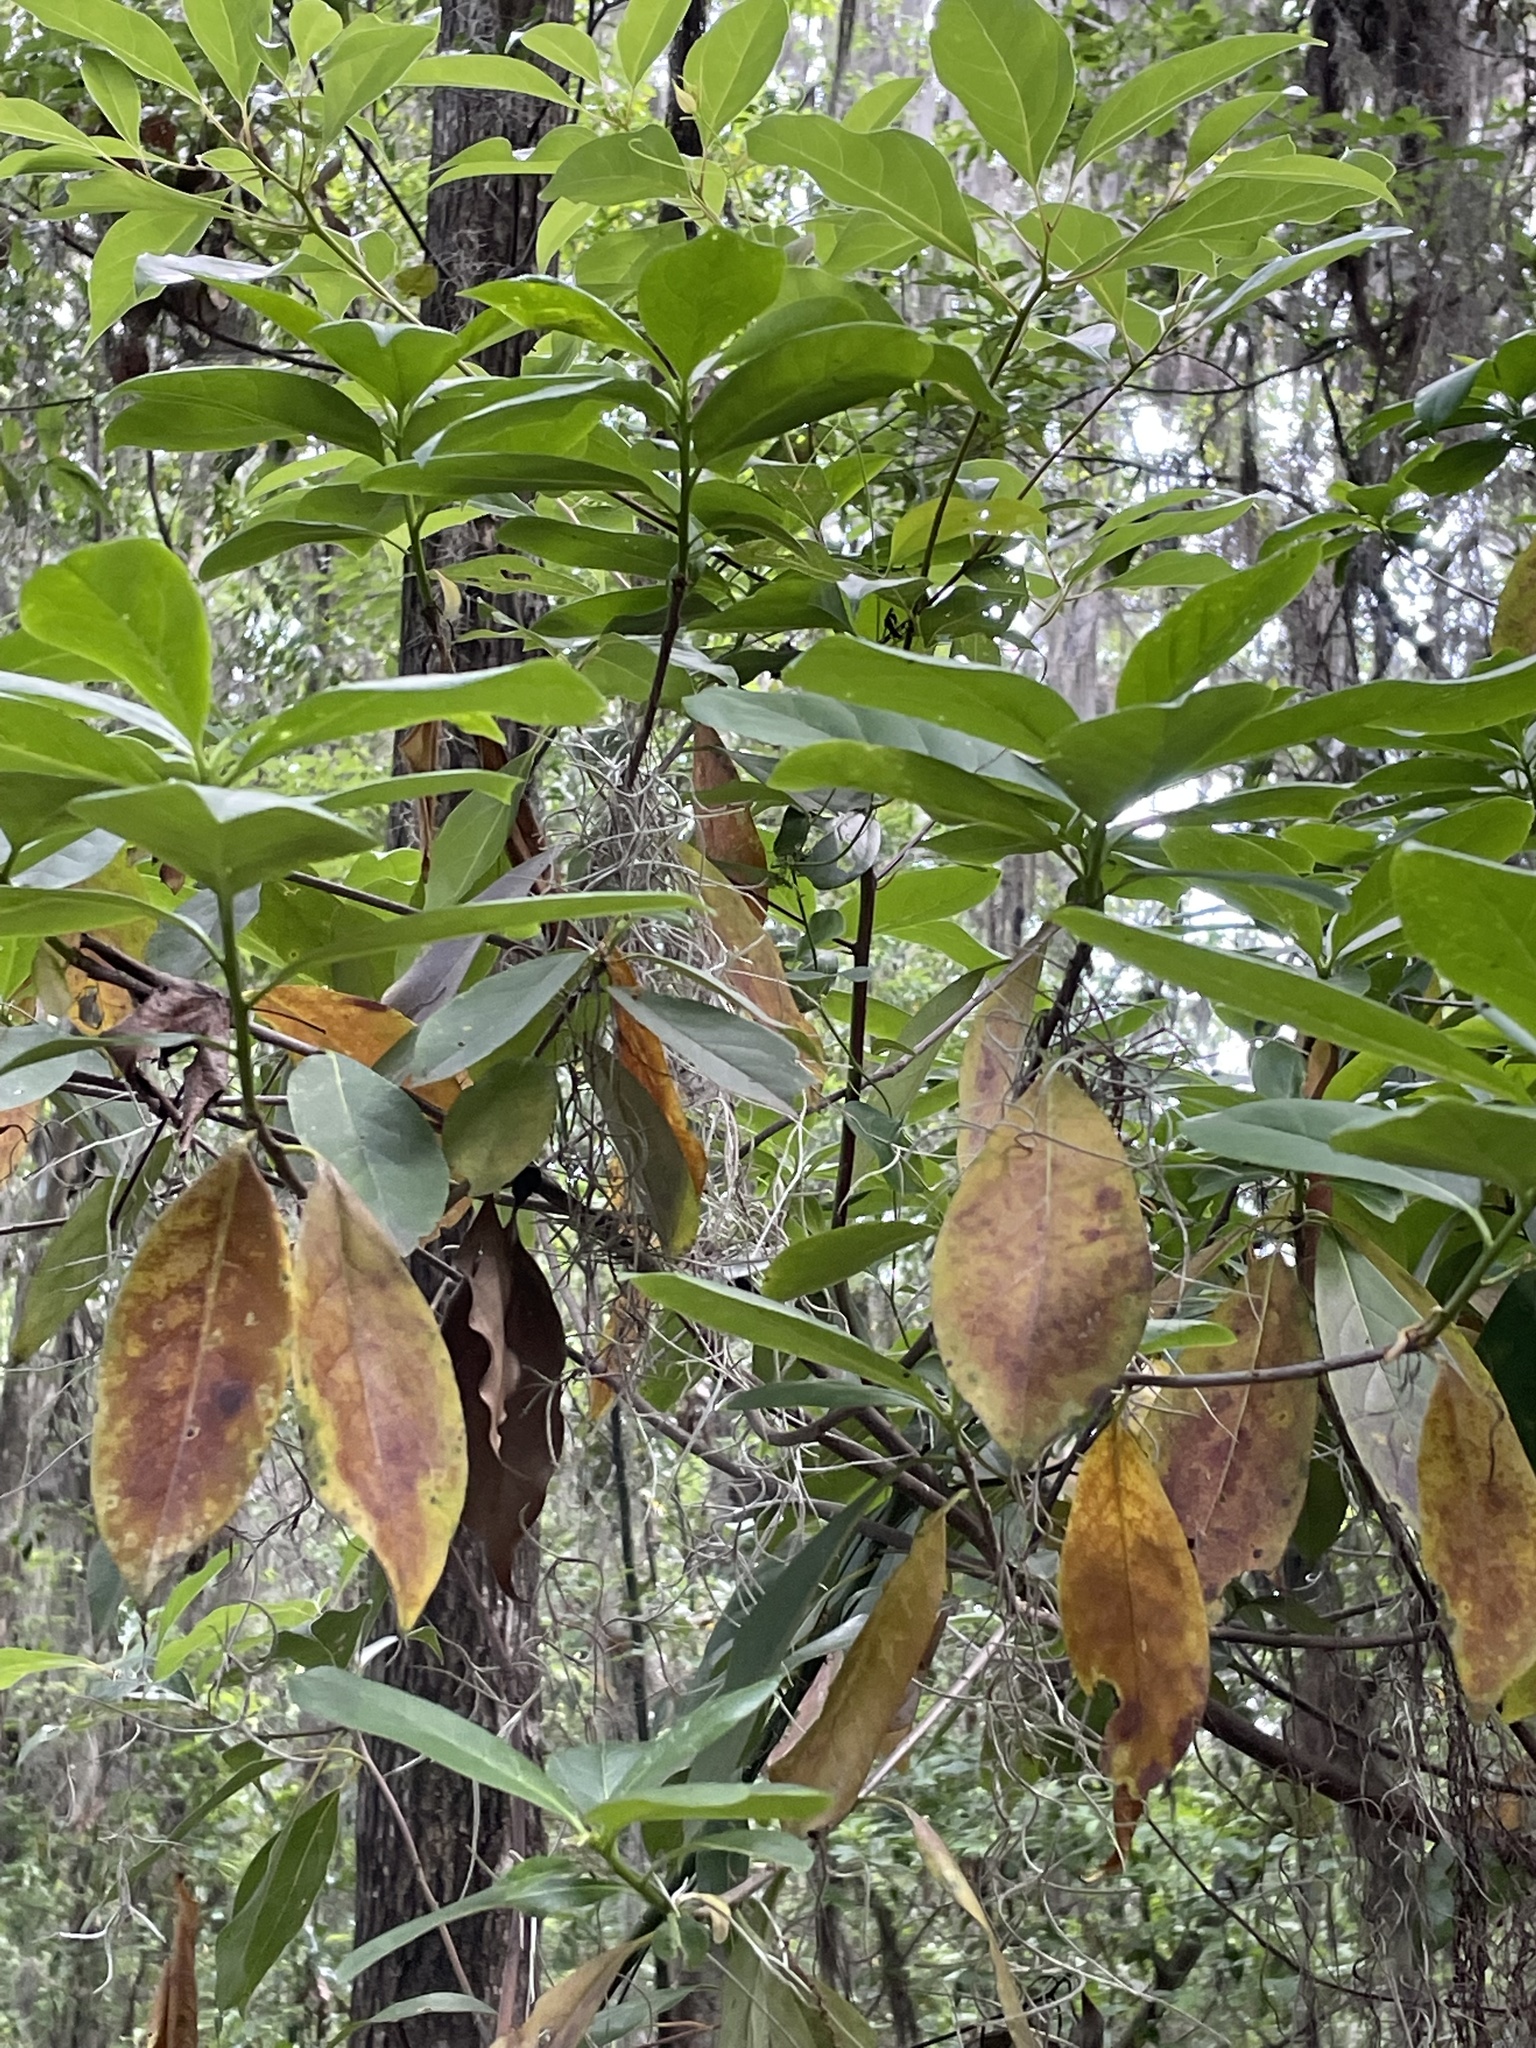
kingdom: Plantae
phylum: Tracheophyta
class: Magnoliopsida
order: Ericales
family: Symplocaceae
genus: Symplocos
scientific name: Symplocos tinctoria
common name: Horse-sugar
